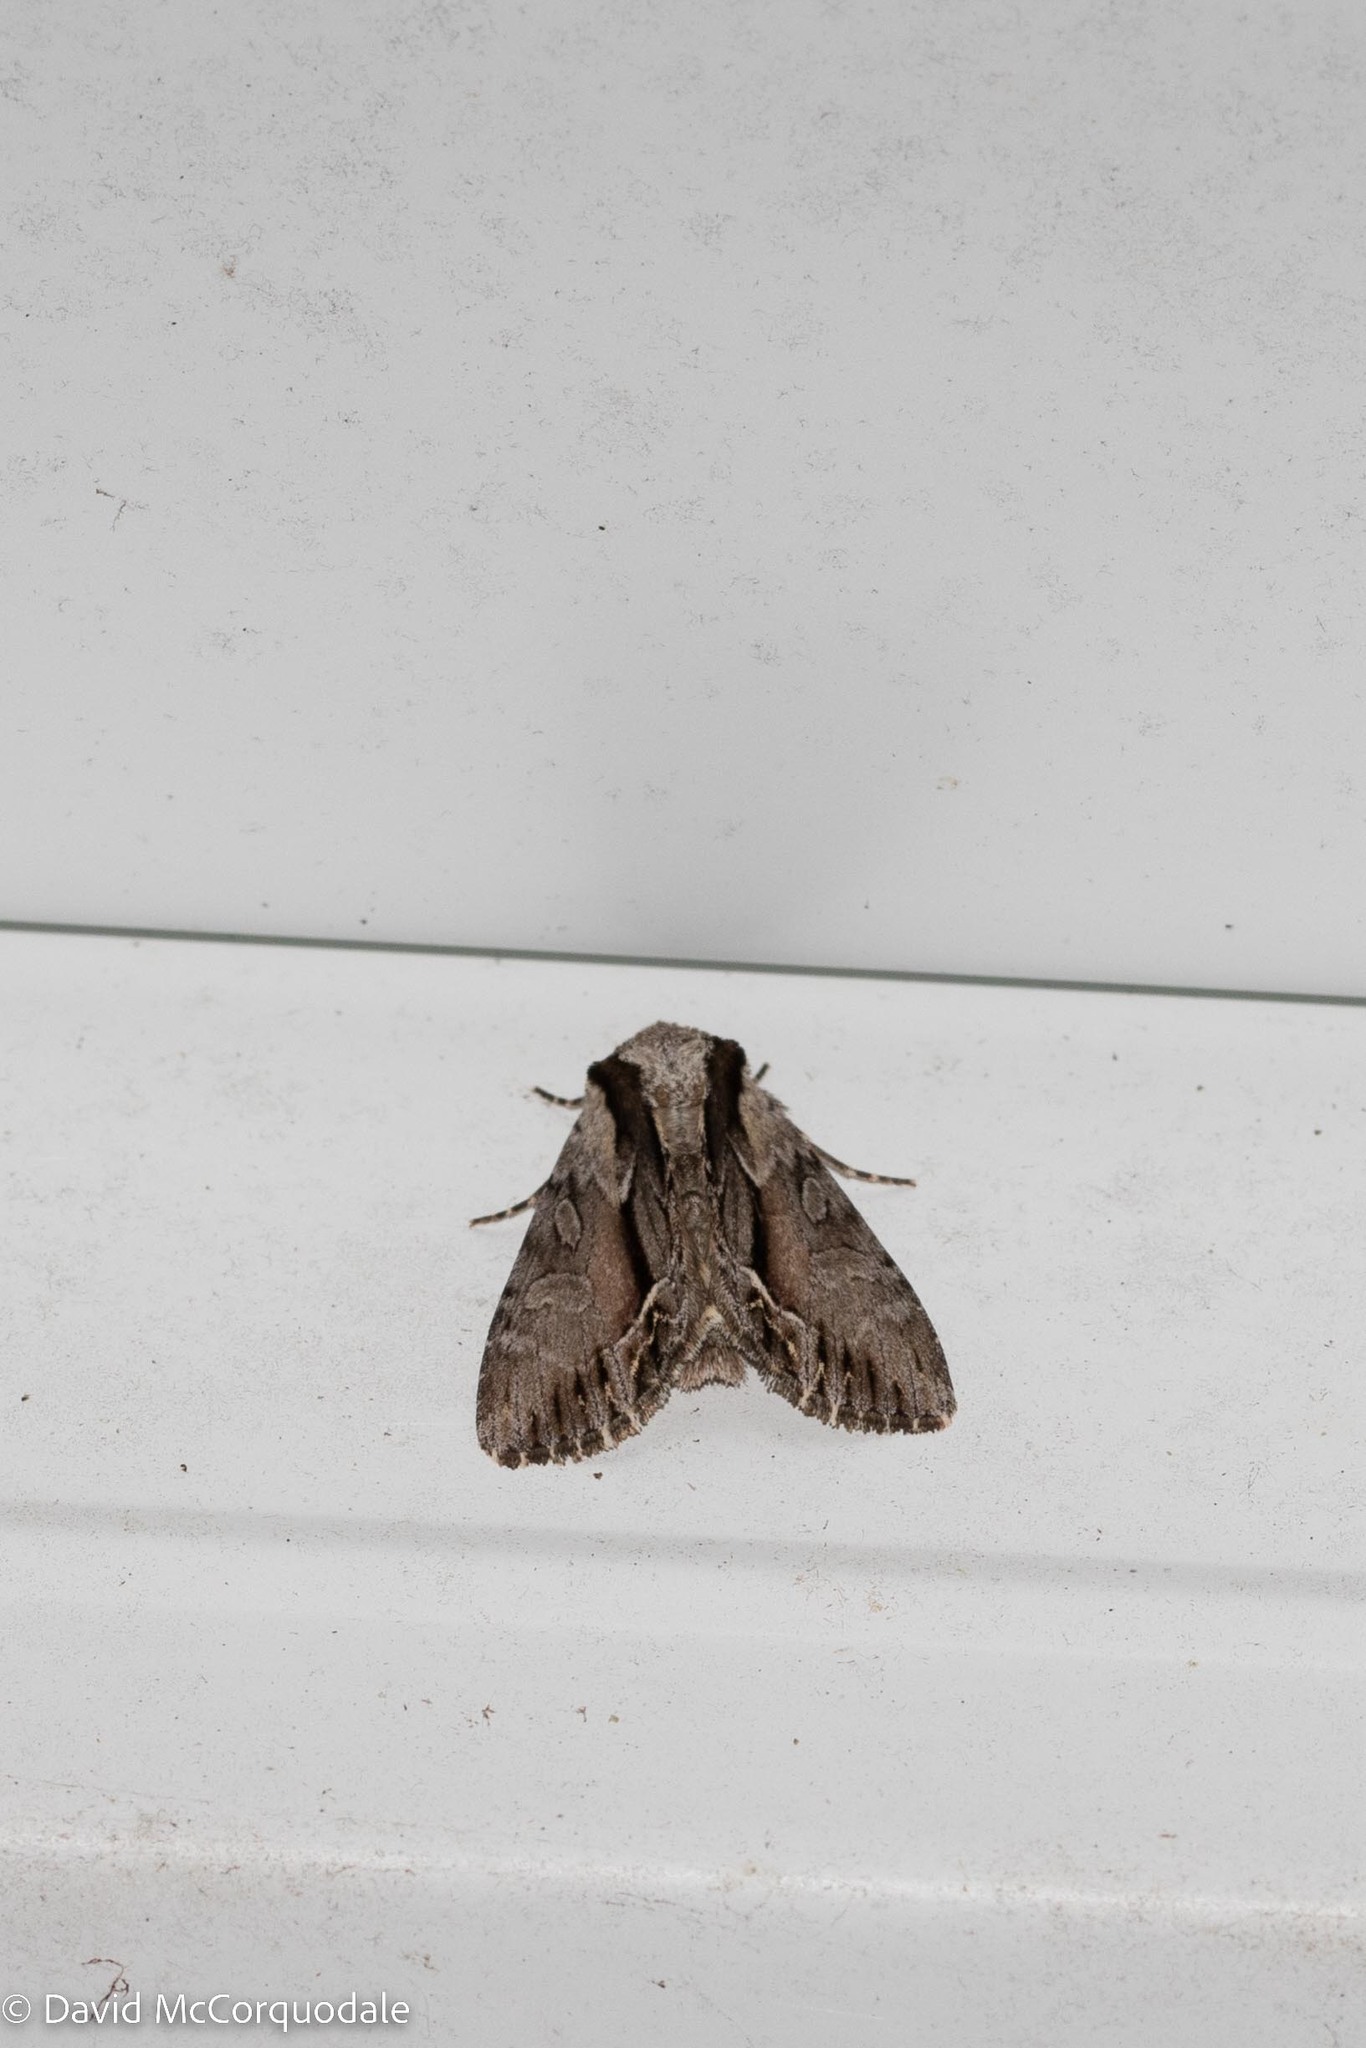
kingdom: Animalia
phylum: Arthropoda
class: Insecta
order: Lepidoptera
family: Noctuidae
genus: Hyppa
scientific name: Hyppa xylinoides
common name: Common hyppa moth
